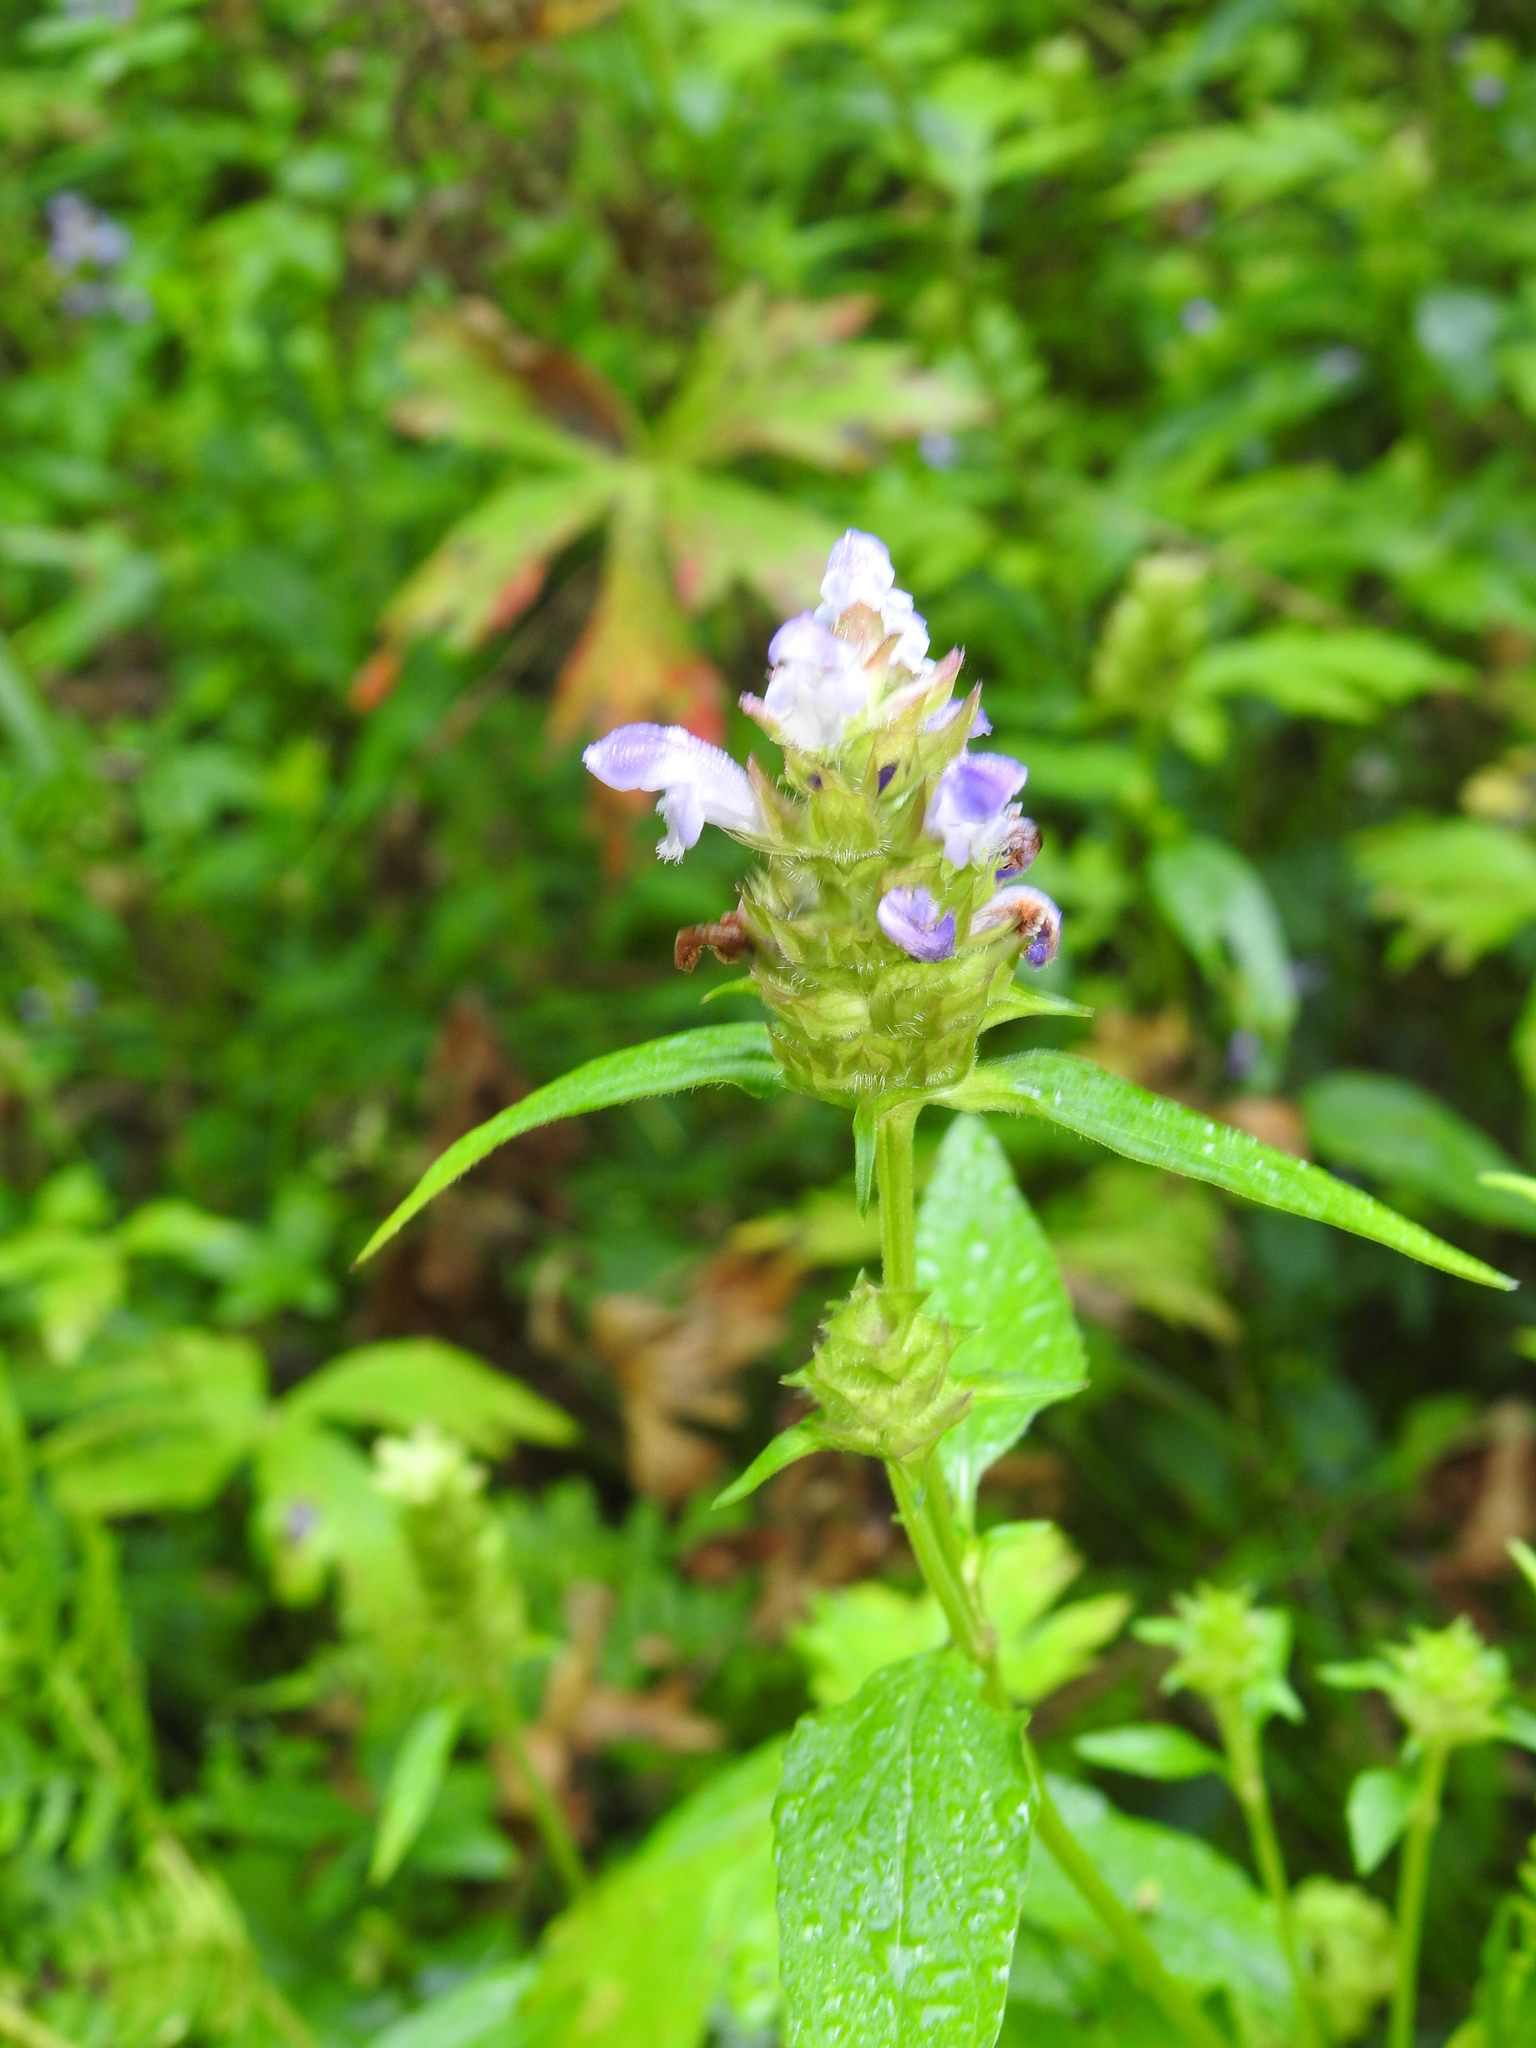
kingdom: Plantae
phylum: Tracheophyta
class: Magnoliopsida
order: Lamiales
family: Lamiaceae
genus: Prunella
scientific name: Prunella vulgaris
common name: Heal-all
